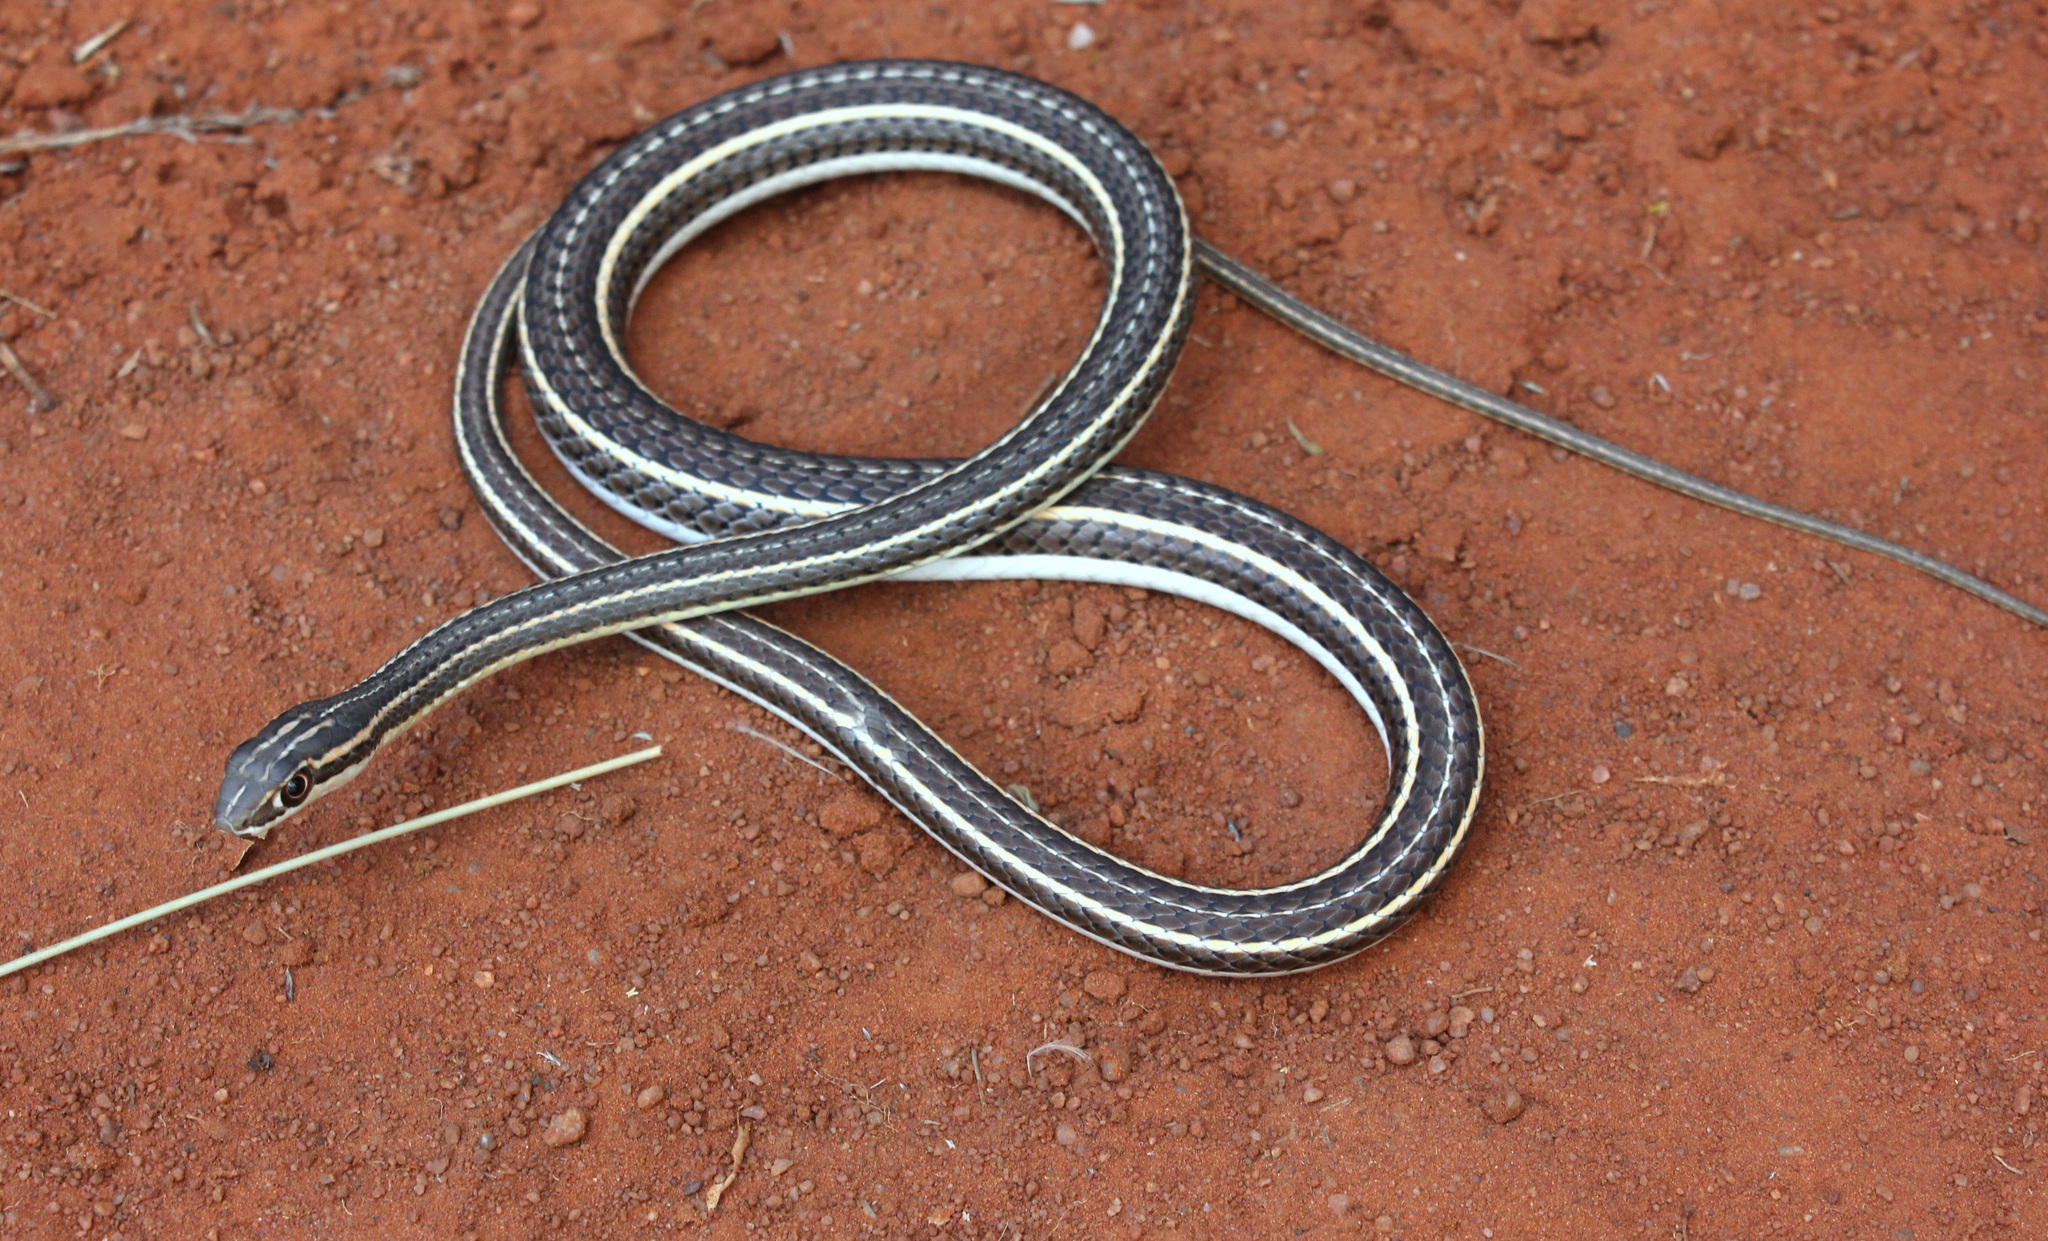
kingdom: Animalia
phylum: Chordata
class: Squamata
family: Psammophiidae
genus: Psammophis
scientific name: Psammophis leightoni
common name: Cape sand snake
